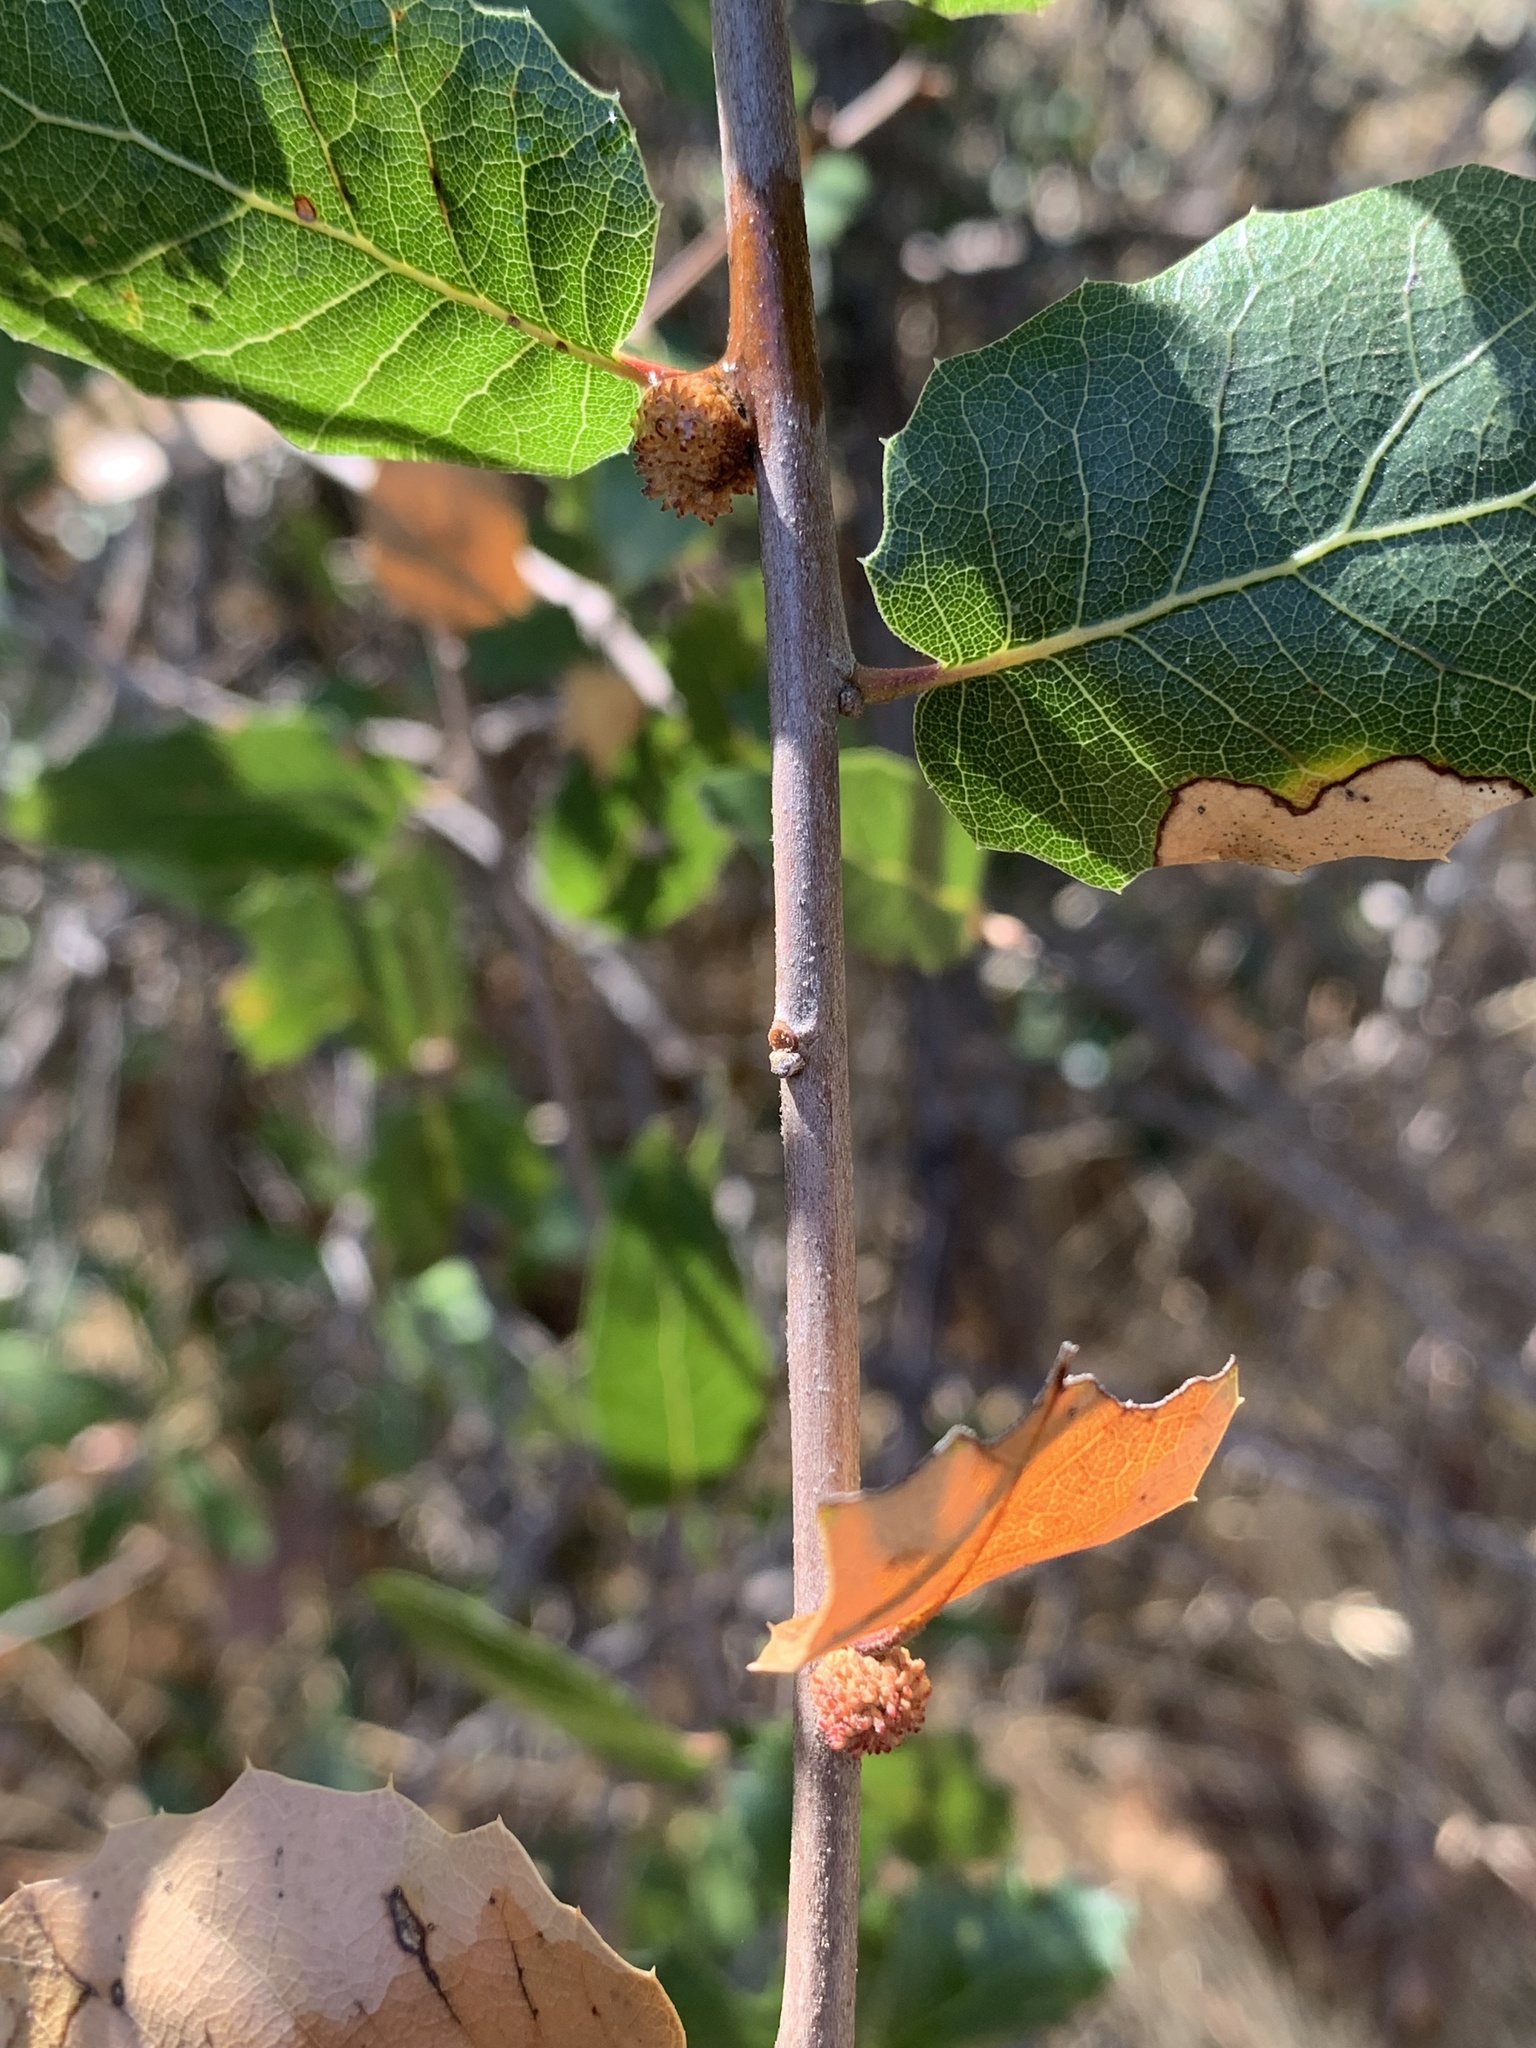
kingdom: Animalia
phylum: Arthropoda
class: Insecta
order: Hymenoptera
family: Cynipidae
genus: Amphibolips
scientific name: Amphibolips quercuspomiformis
